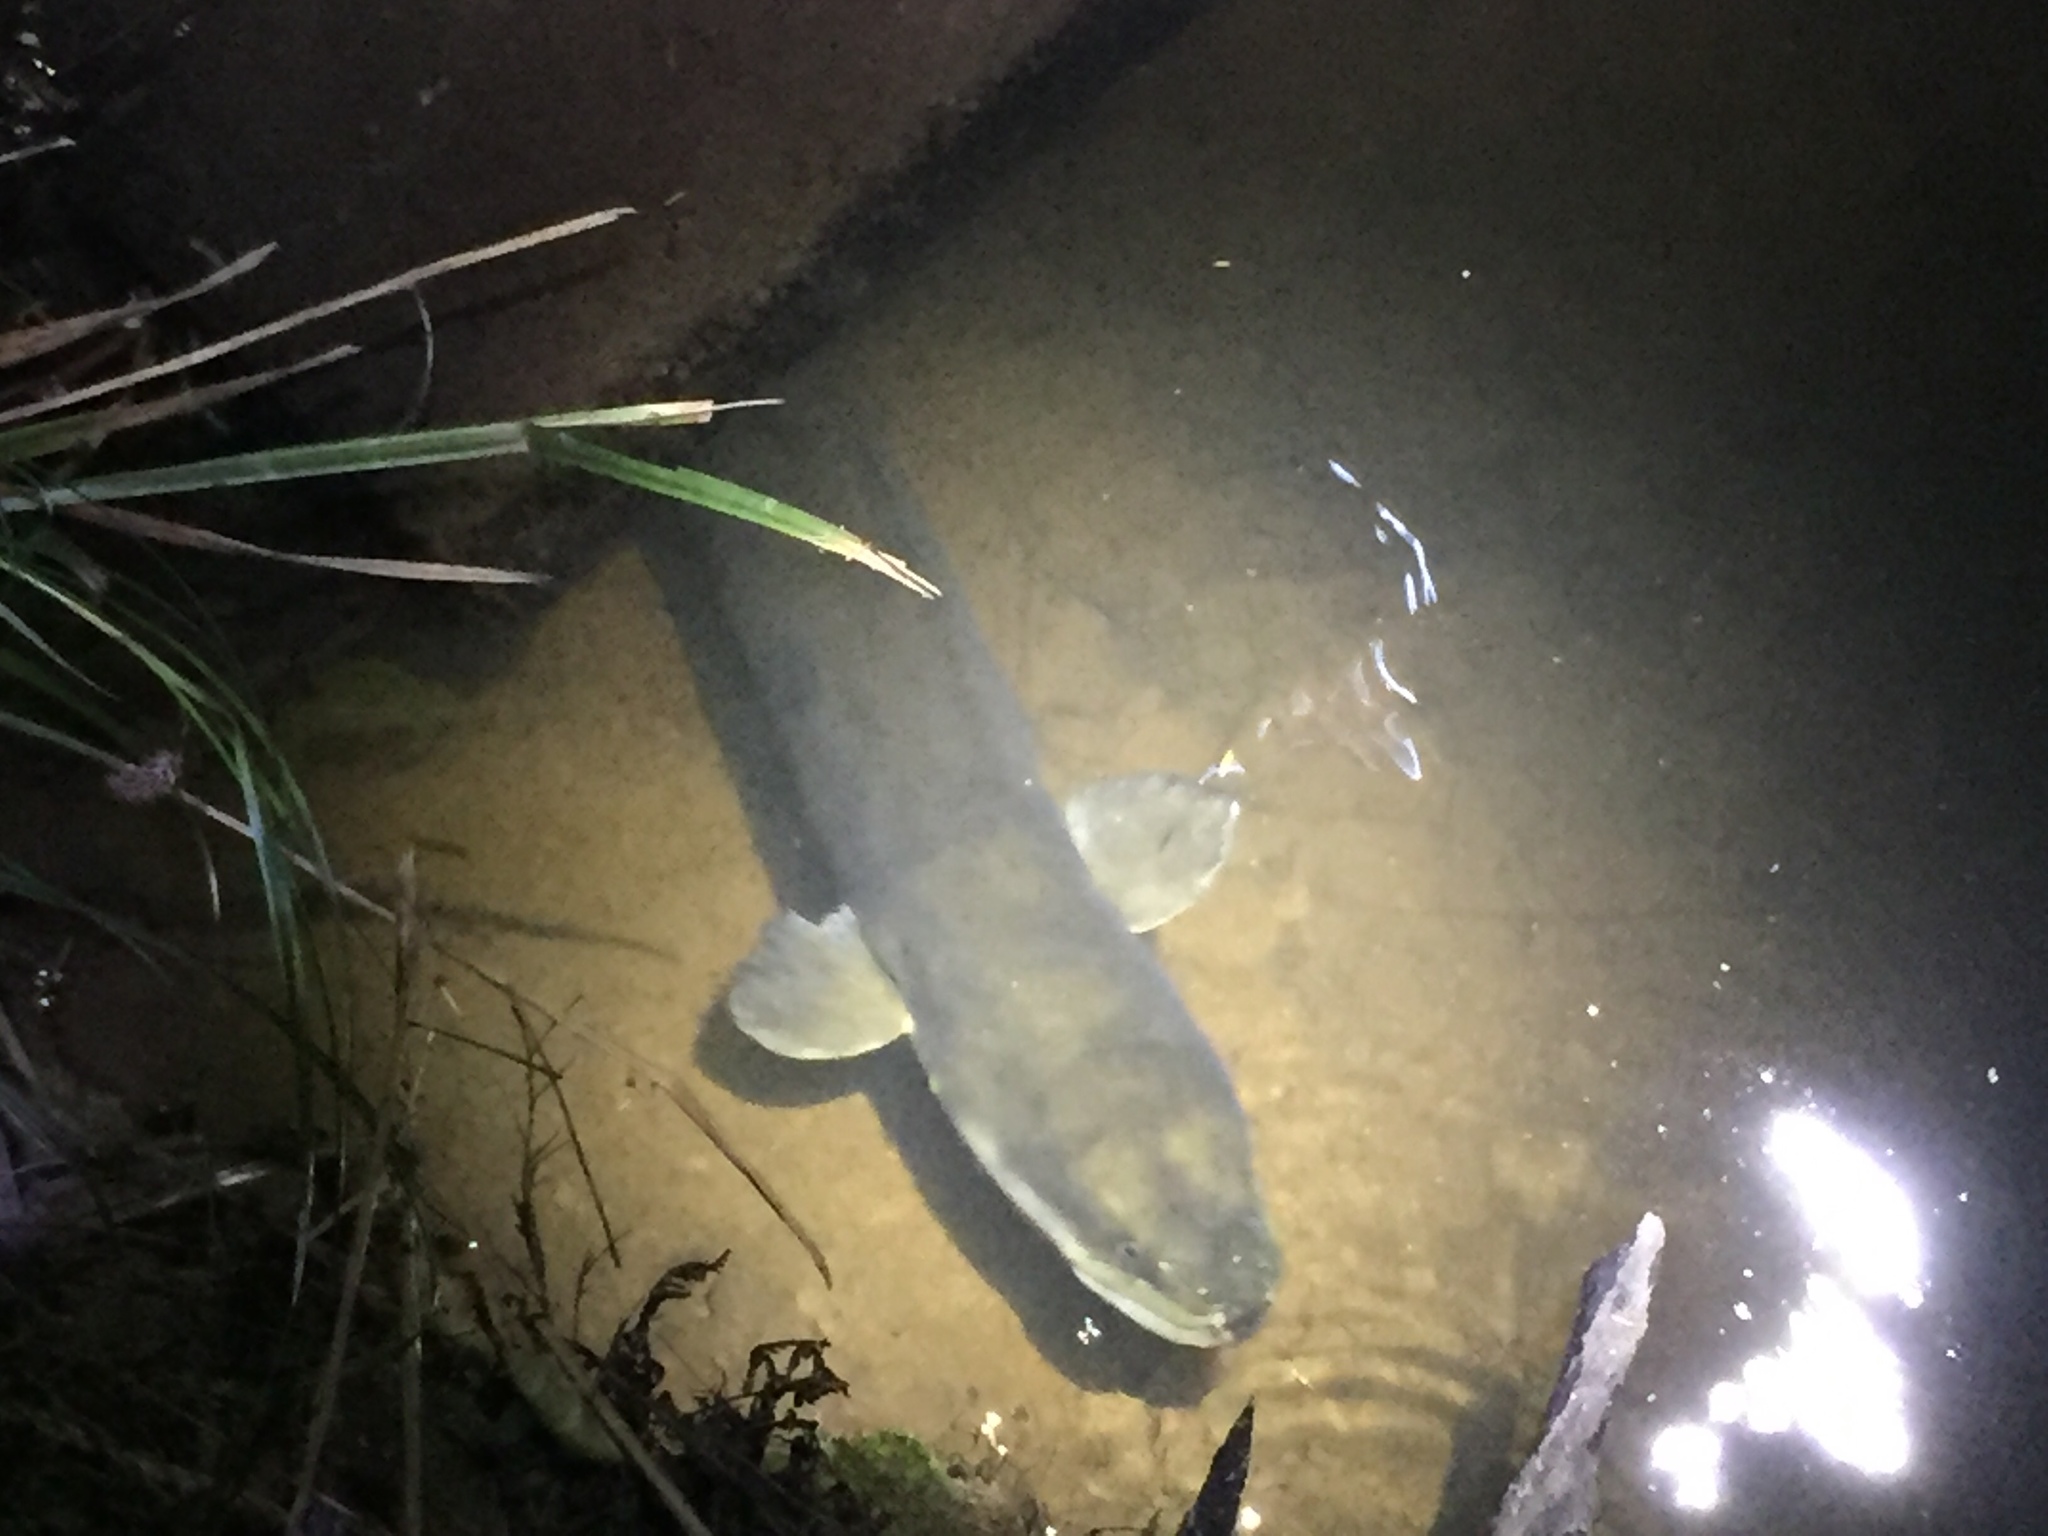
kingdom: Animalia
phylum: Chordata
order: Anguilliformes
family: Anguillidae
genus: Anguilla
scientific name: Anguilla dieffenbachii
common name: New zealand longfin eel
